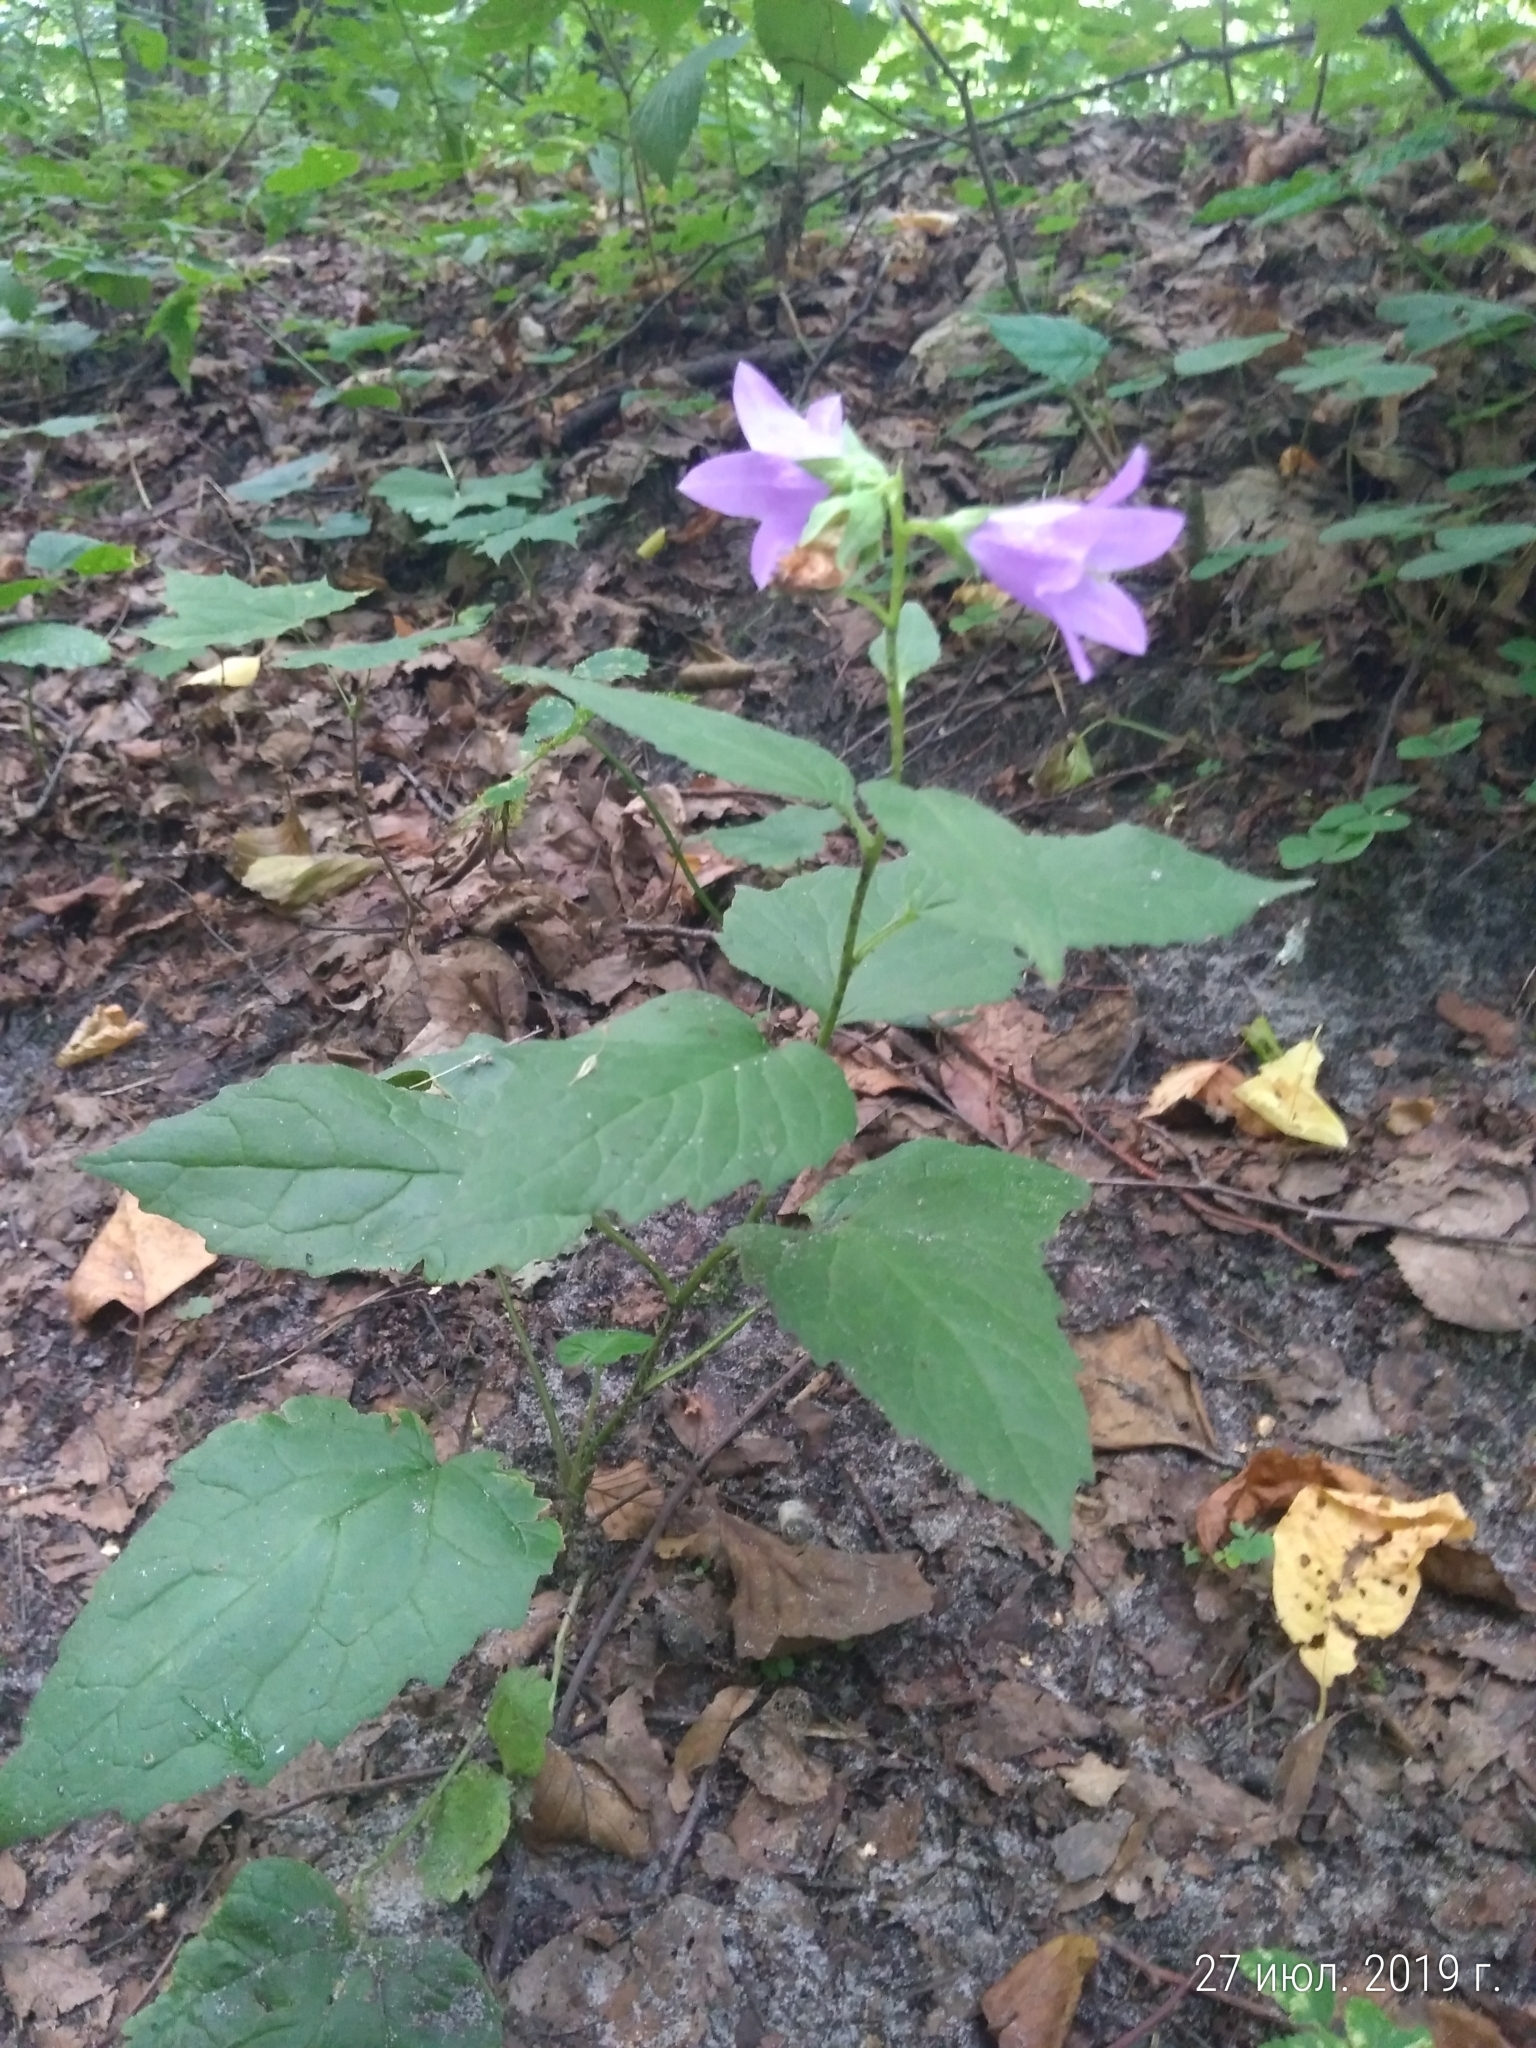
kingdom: Plantae
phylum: Tracheophyta
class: Magnoliopsida
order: Asterales
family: Campanulaceae
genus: Campanula
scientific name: Campanula trachelium
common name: Nettle-leaved bellflower
